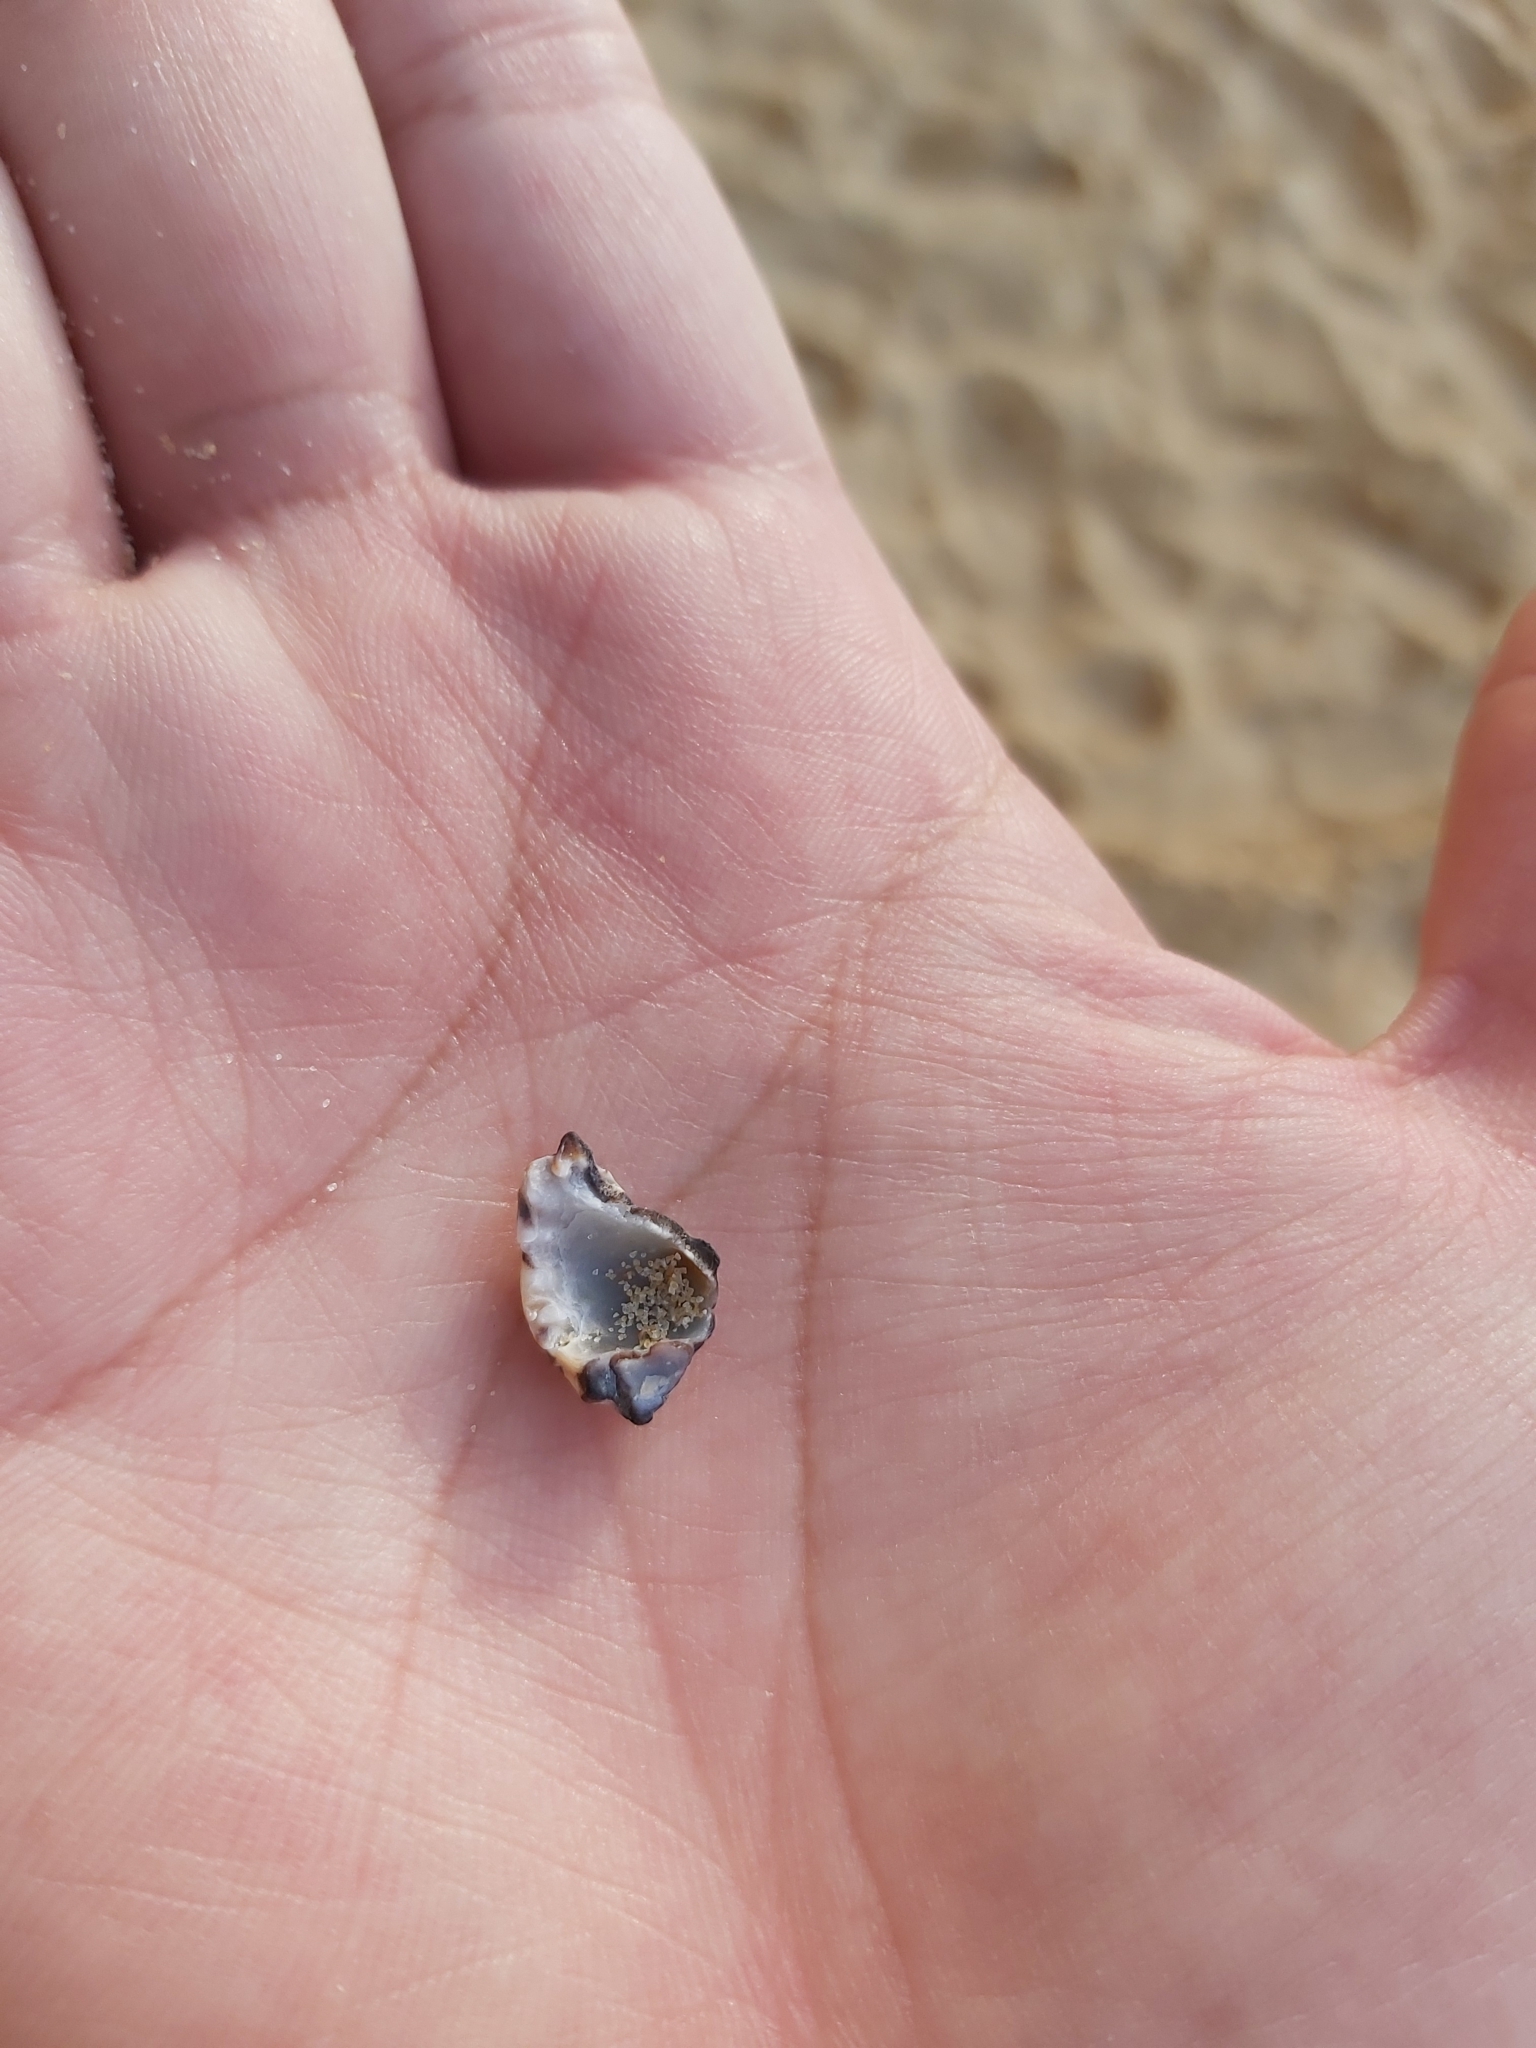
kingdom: Animalia
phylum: Mollusca
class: Gastropoda
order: Neogastropoda
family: Muricidae
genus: Tenguella
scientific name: Tenguella marginalba
